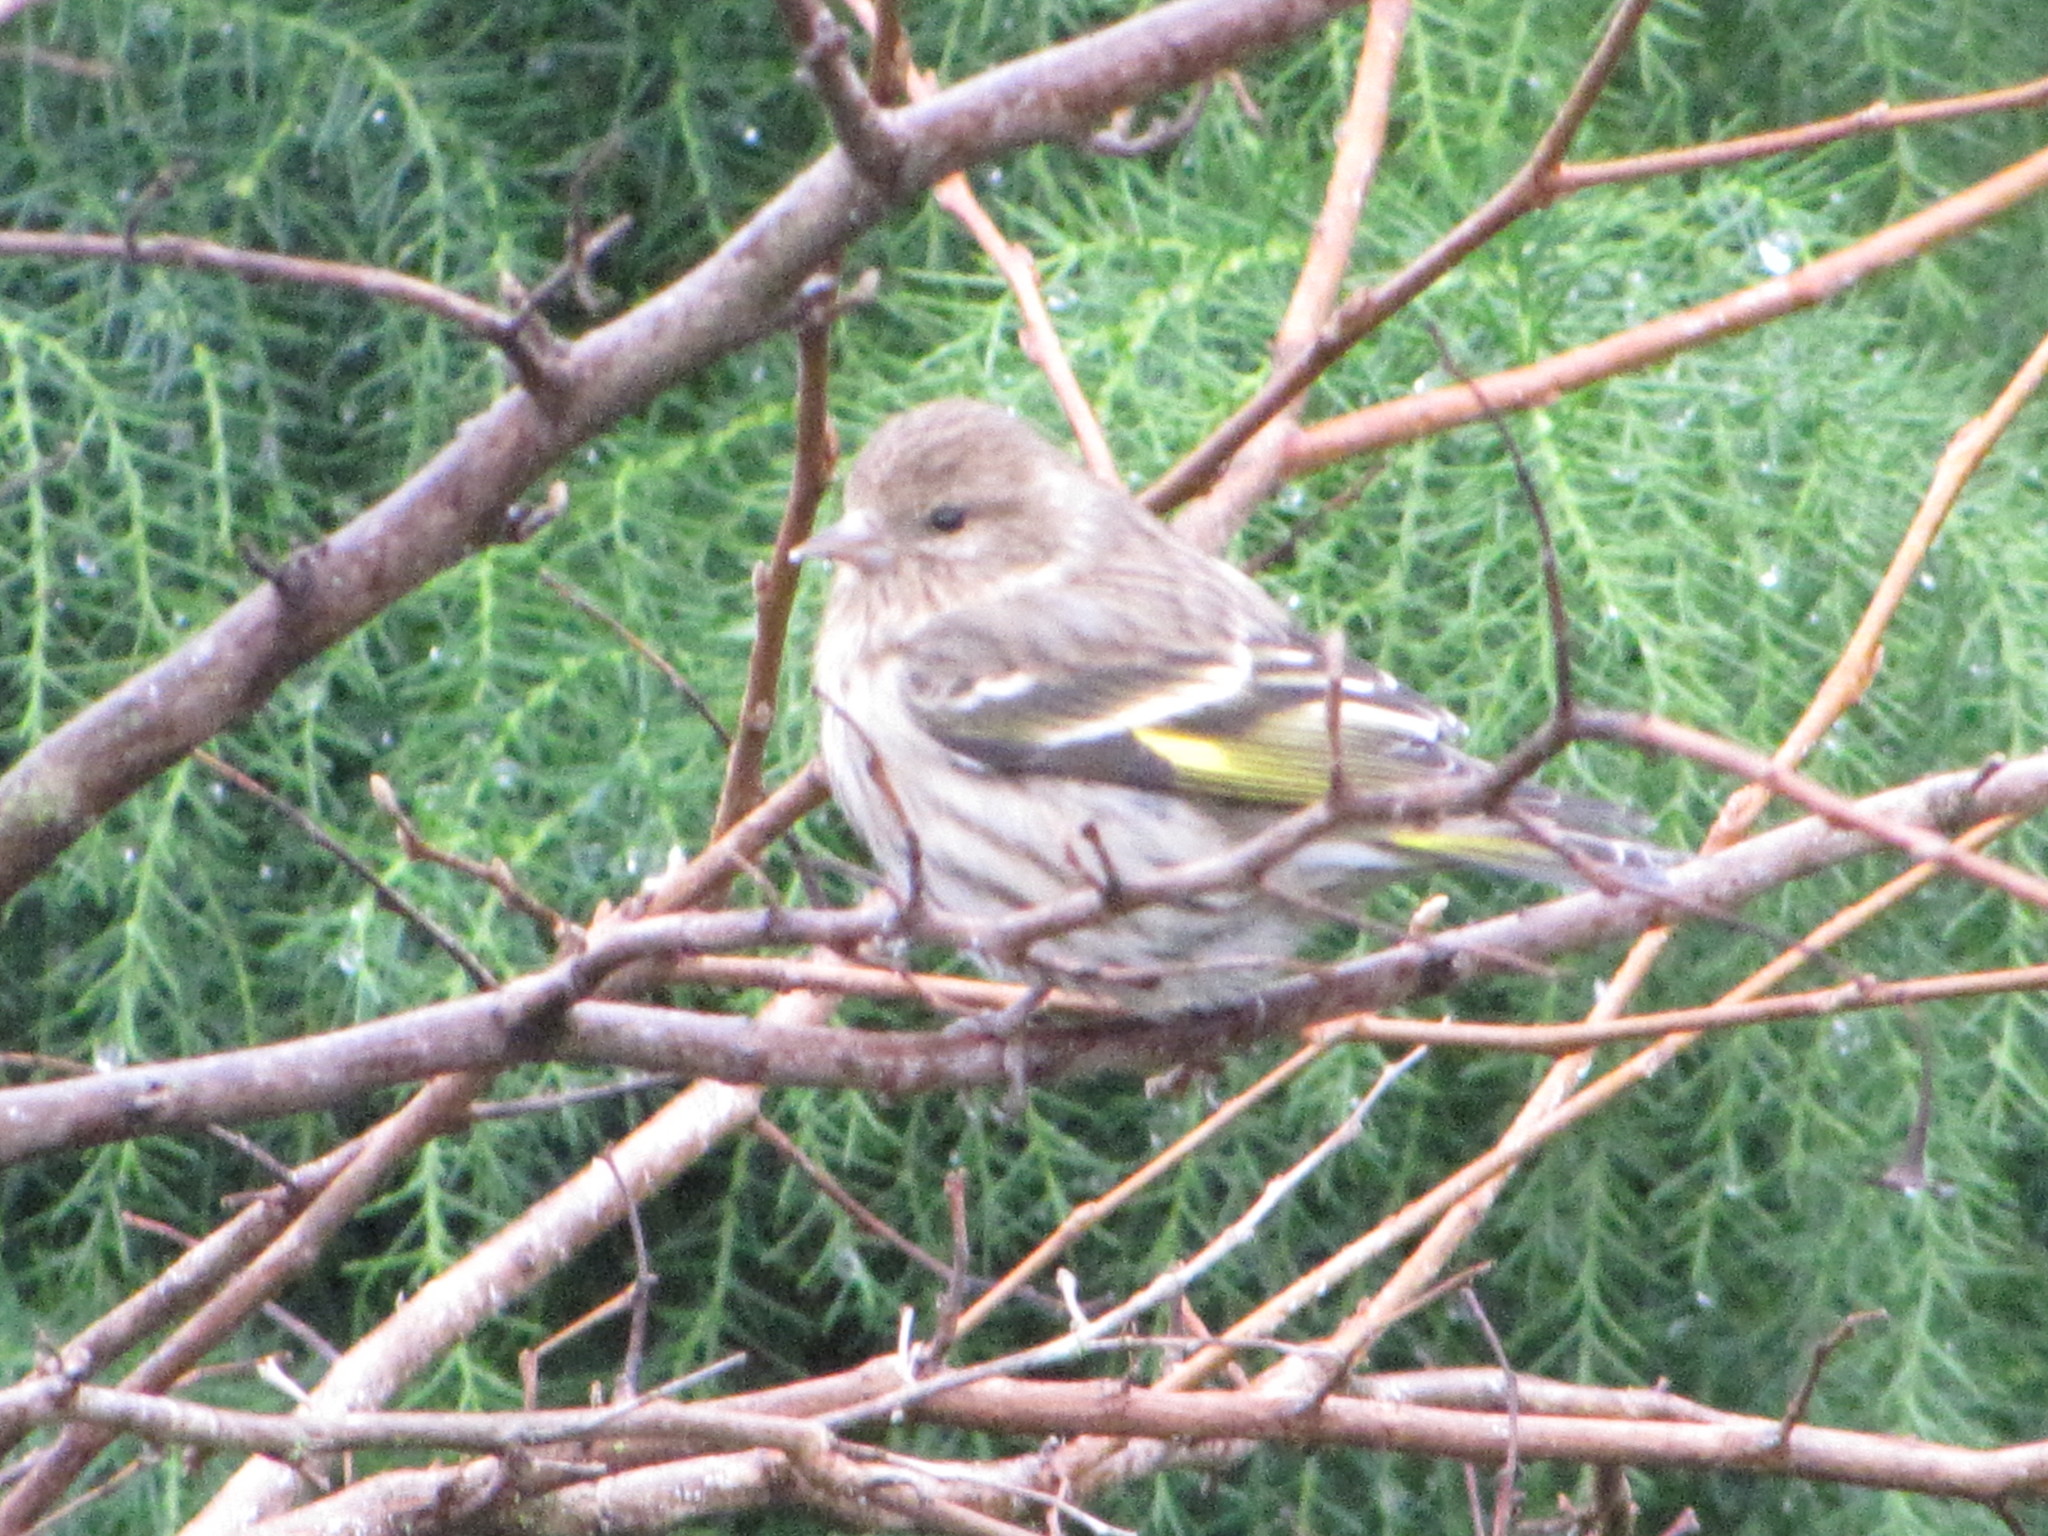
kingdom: Animalia
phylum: Chordata
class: Aves
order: Passeriformes
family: Fringillidae
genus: Spinus
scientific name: Spinus pinus
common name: Pine siskin
